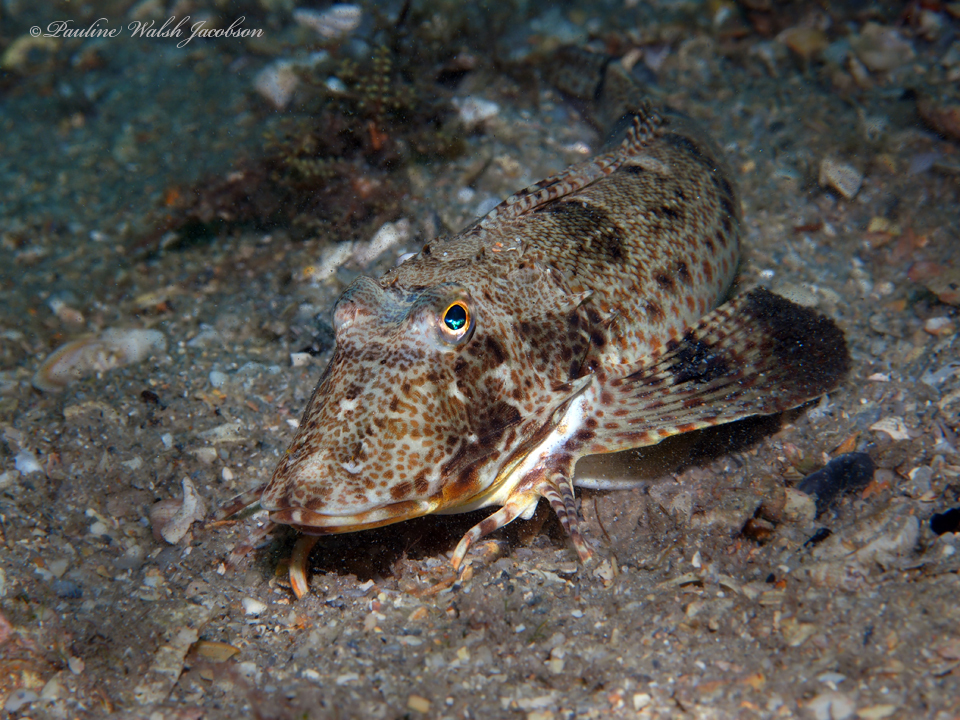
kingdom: Animalia
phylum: Chordata
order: Scorpaeniformes
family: Triglidae
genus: Prionotus
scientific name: Prionotus scitulus
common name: Leopard searobin
